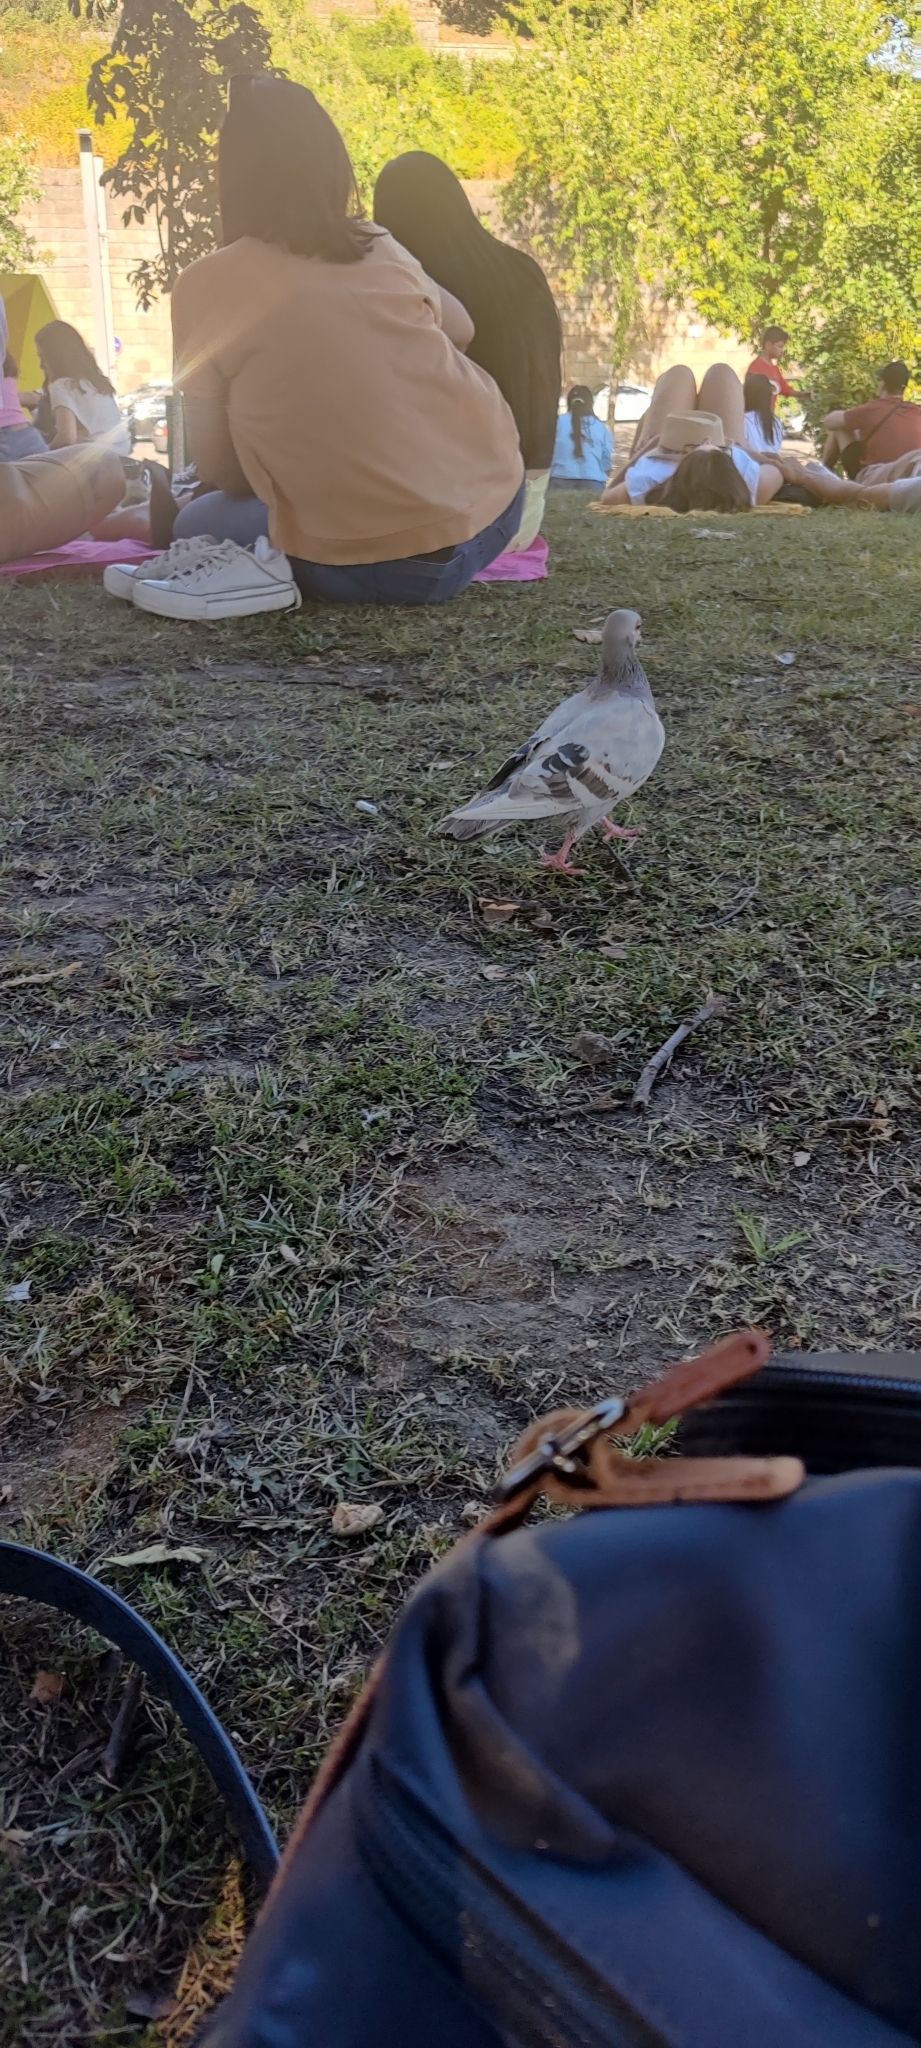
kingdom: Animalia
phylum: Chordata
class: Aves
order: Columbiformes
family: Columbidae
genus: Columba
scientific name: Columba livia
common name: Rock pigeon
